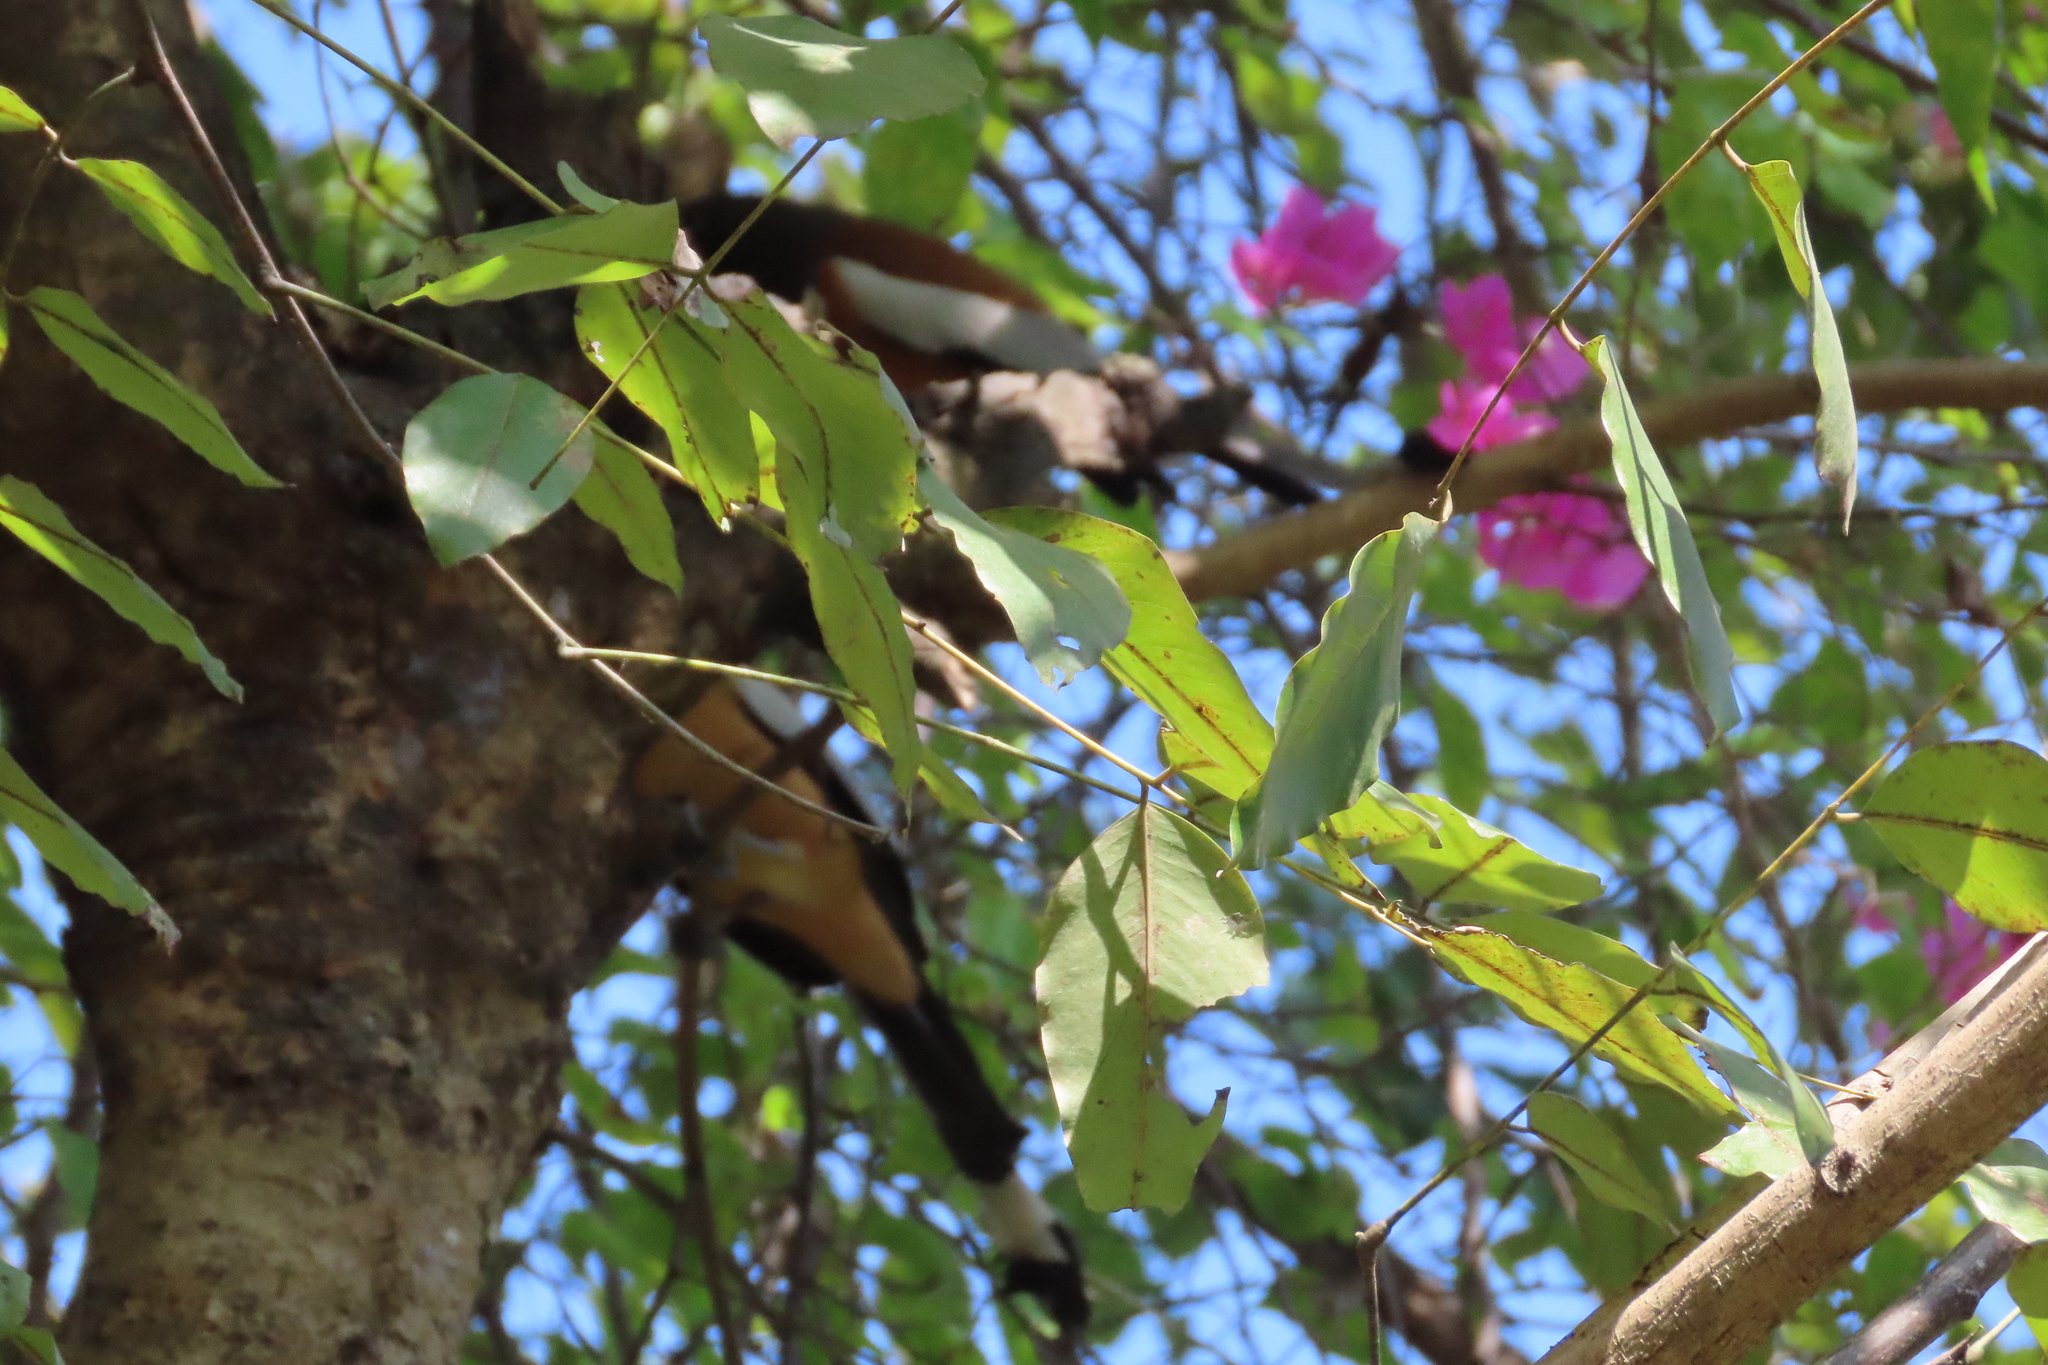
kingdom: Animalia
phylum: Chordata
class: Aves
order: Passeriformes
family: Corvidae
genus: Dendrocitta
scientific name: Dendrocitta vagabunda
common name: Rufous treepie
